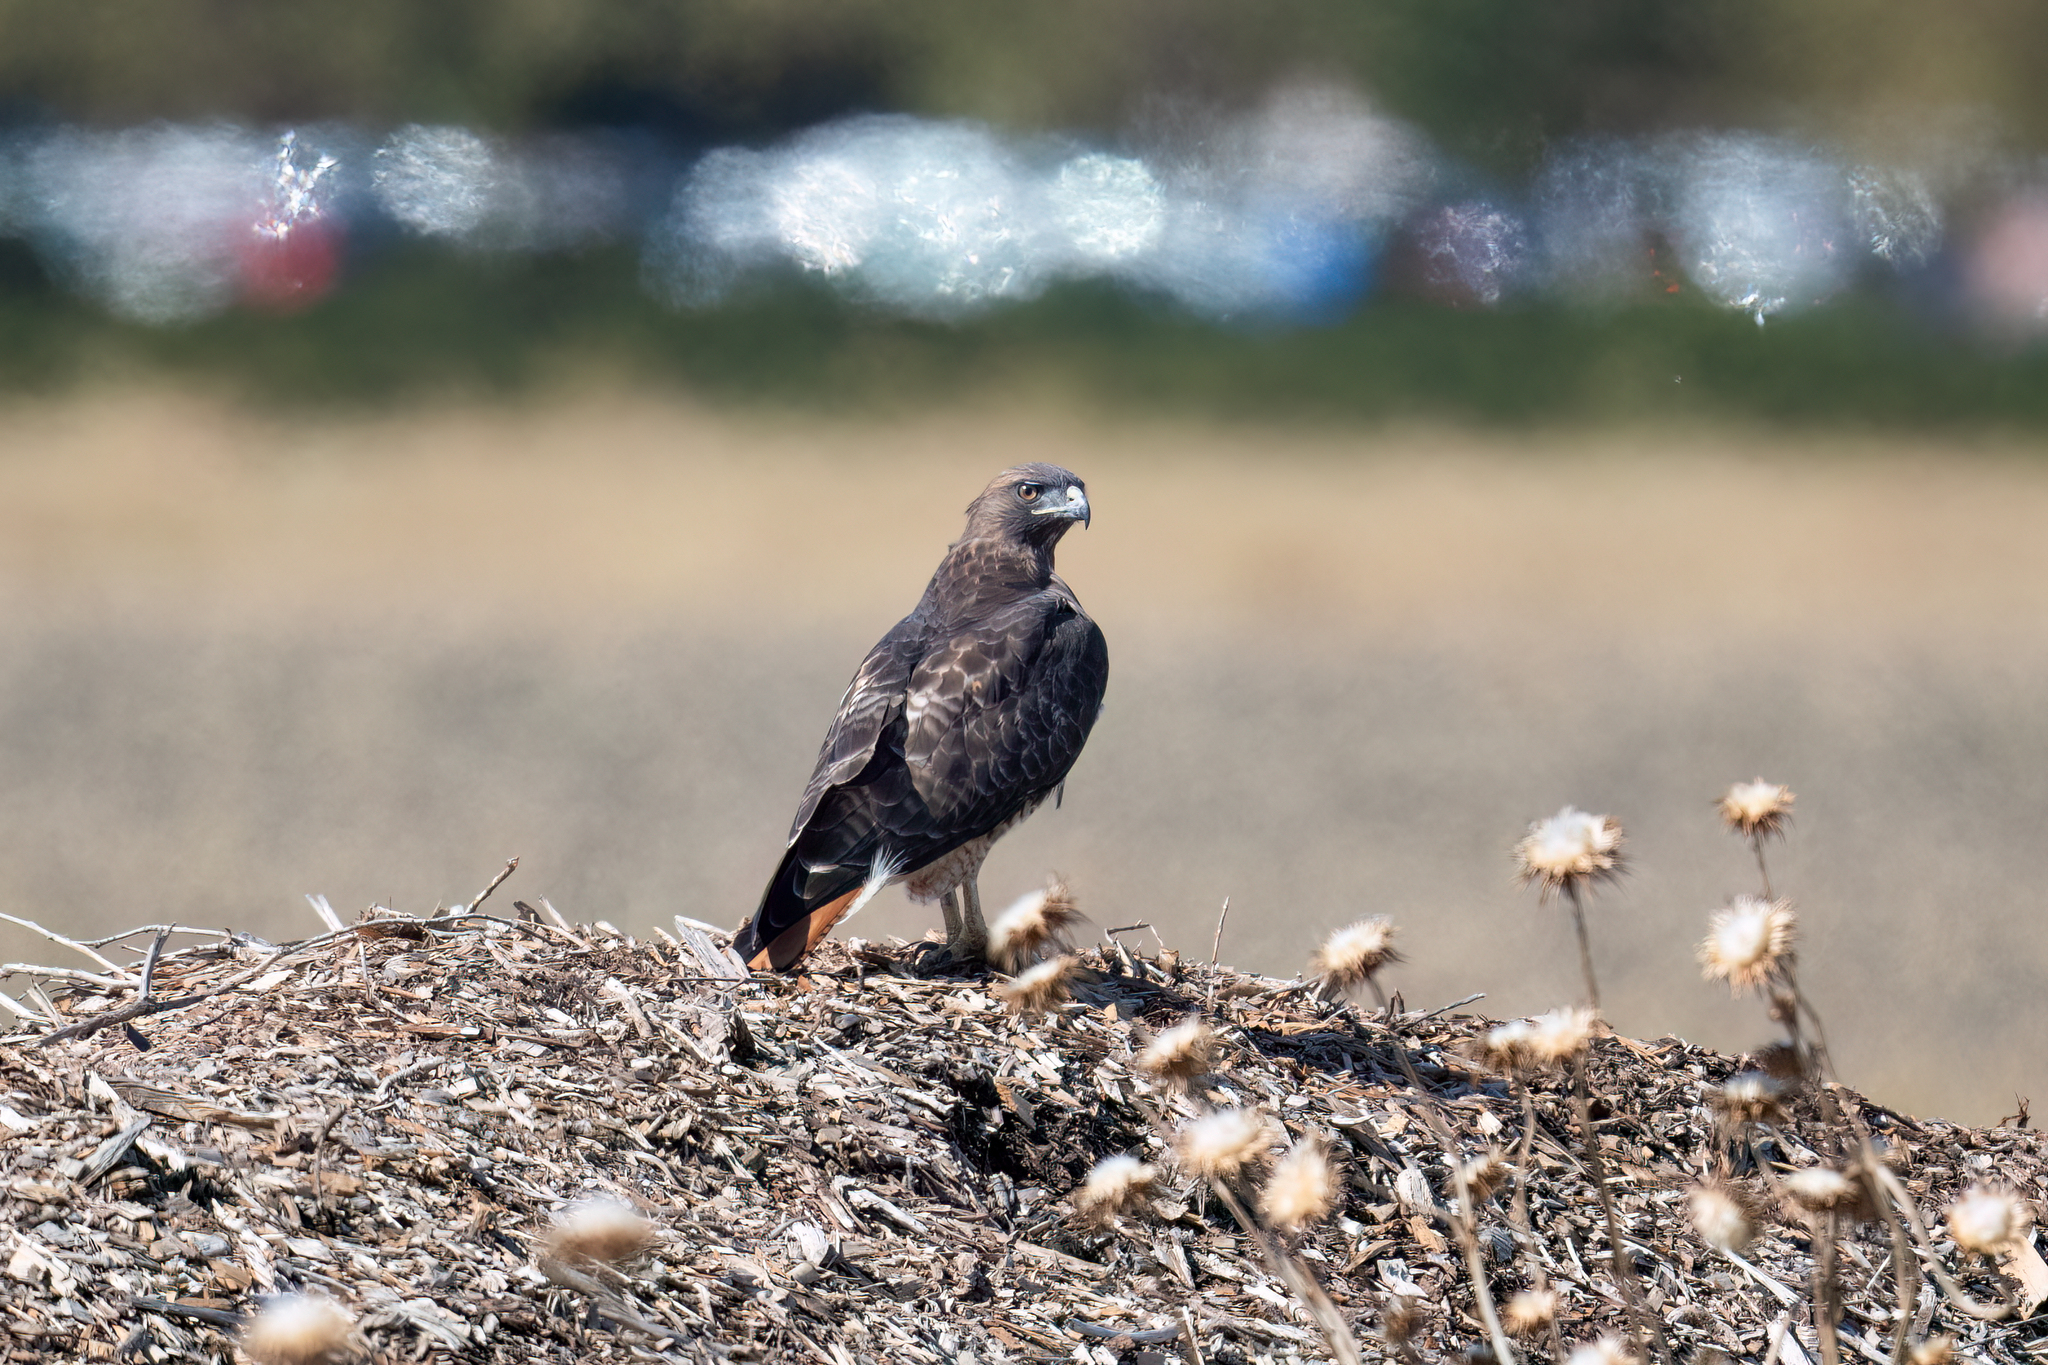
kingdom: Animalia
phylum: Chordata
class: Aves
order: Accipitriformes
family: Accipitridae
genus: Buteo
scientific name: Buteo jamaicensis
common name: Red-tailed hawk
